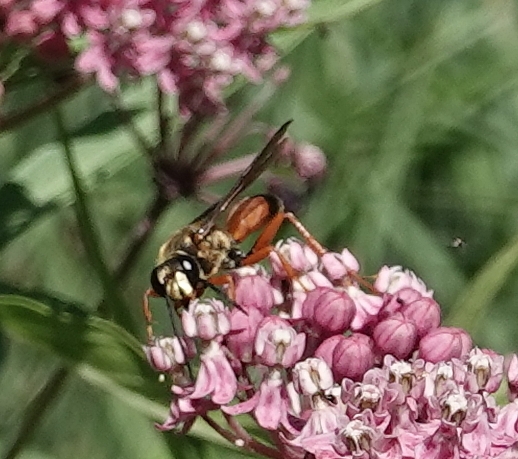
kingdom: Animalia
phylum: Arthropoda
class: Insecta
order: Hymenoptera
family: Sphecidae
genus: Sphex
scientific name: Sphex ichneumoneus
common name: Great golden digger wasp
